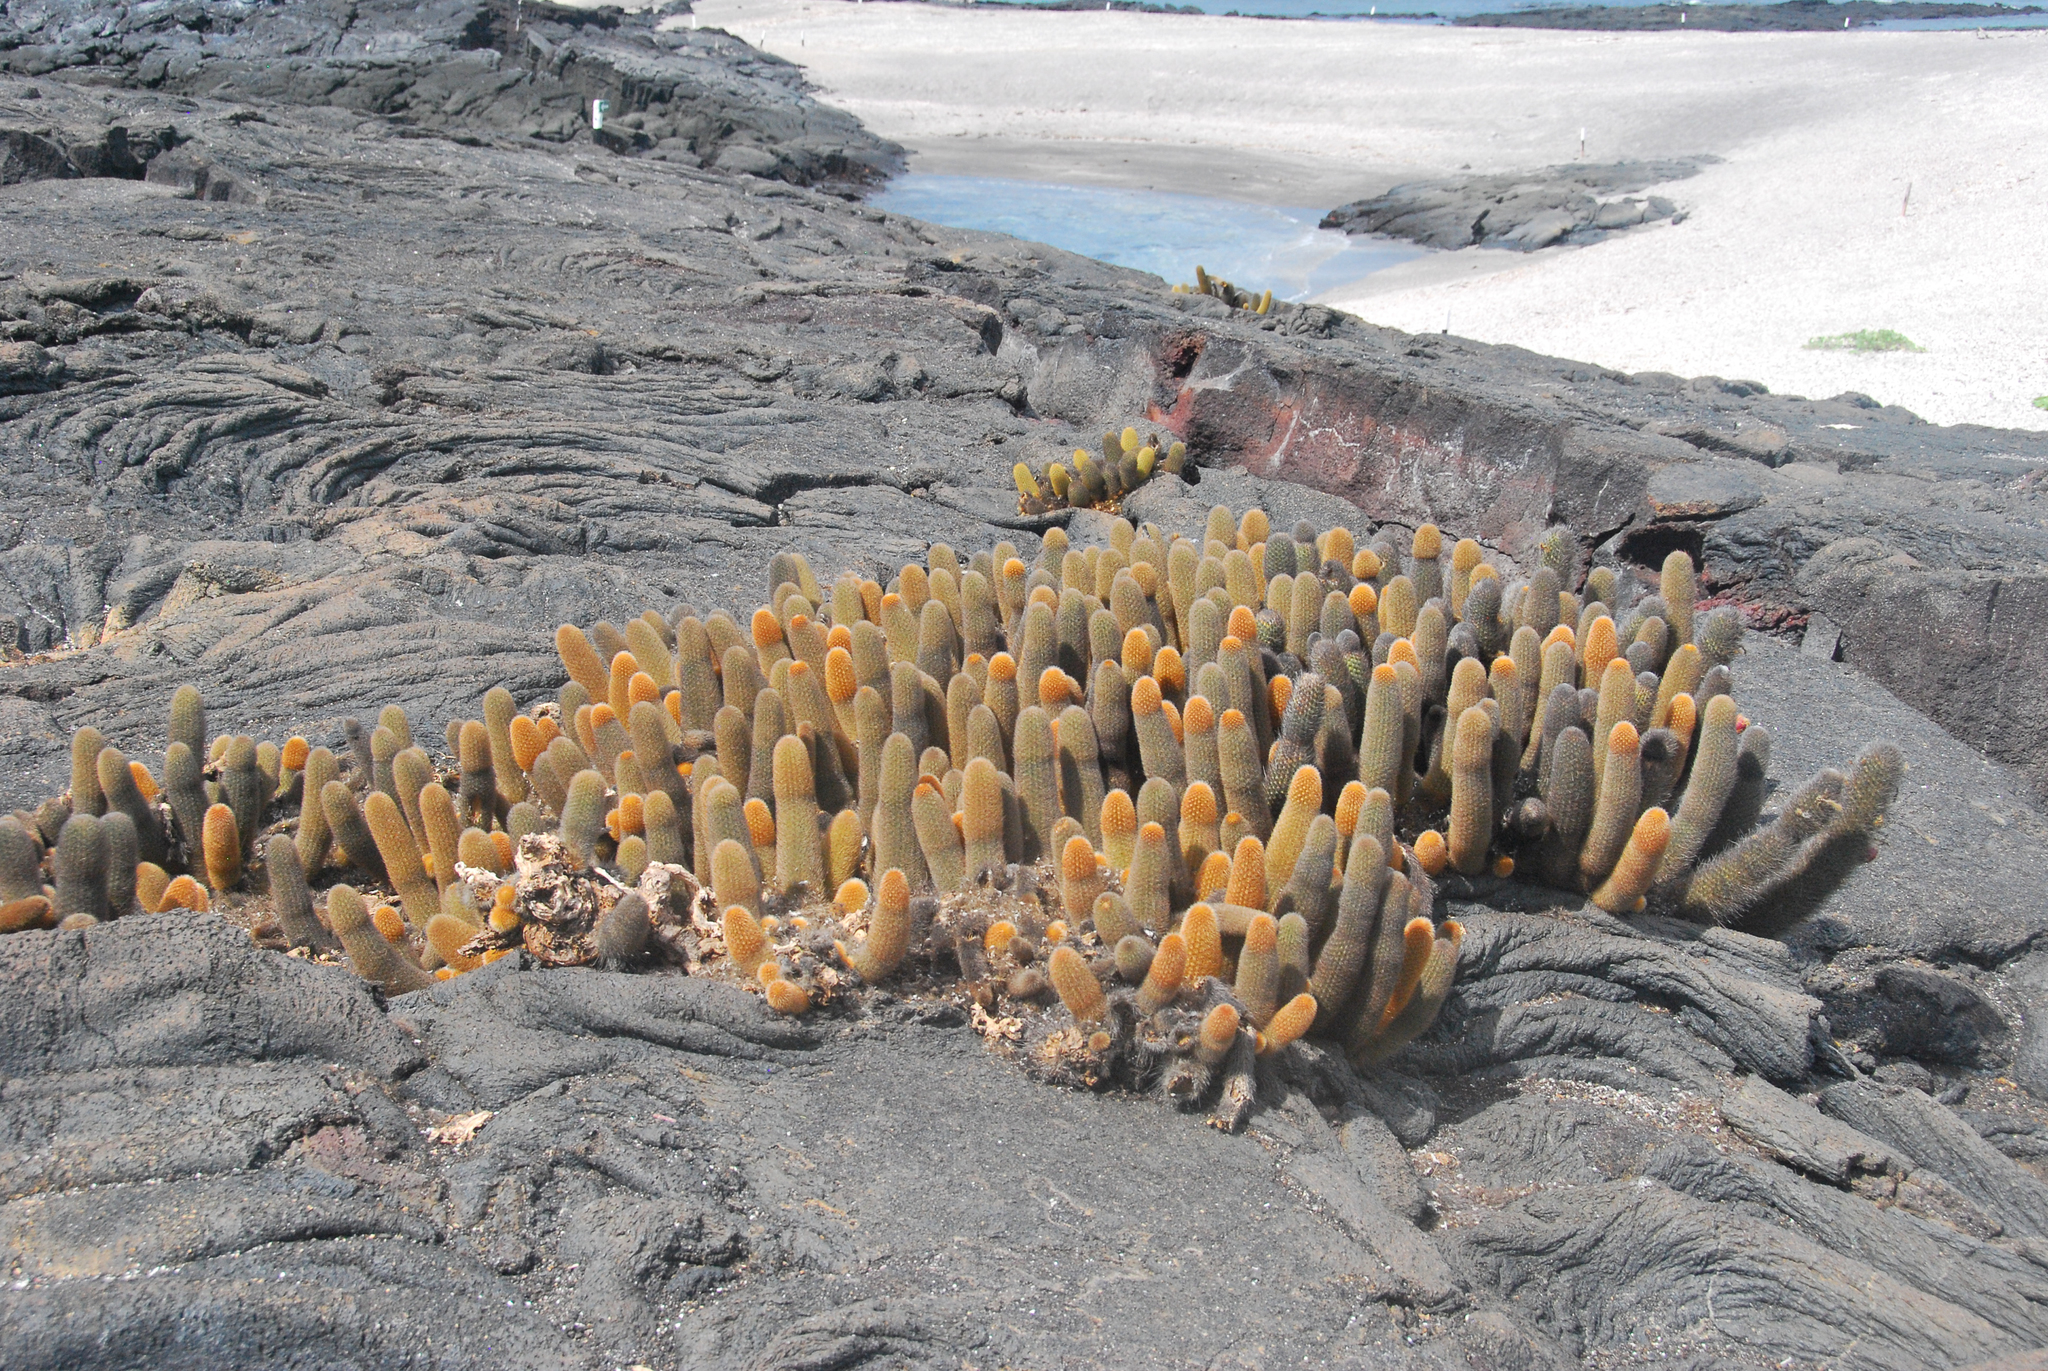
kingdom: Plantae
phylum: Tracheophyta
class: Magnoliopsida
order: Caryophyllales
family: Cactaceae
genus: Brachycereus
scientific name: Brachycereus nesioticus
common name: Lava cactus
